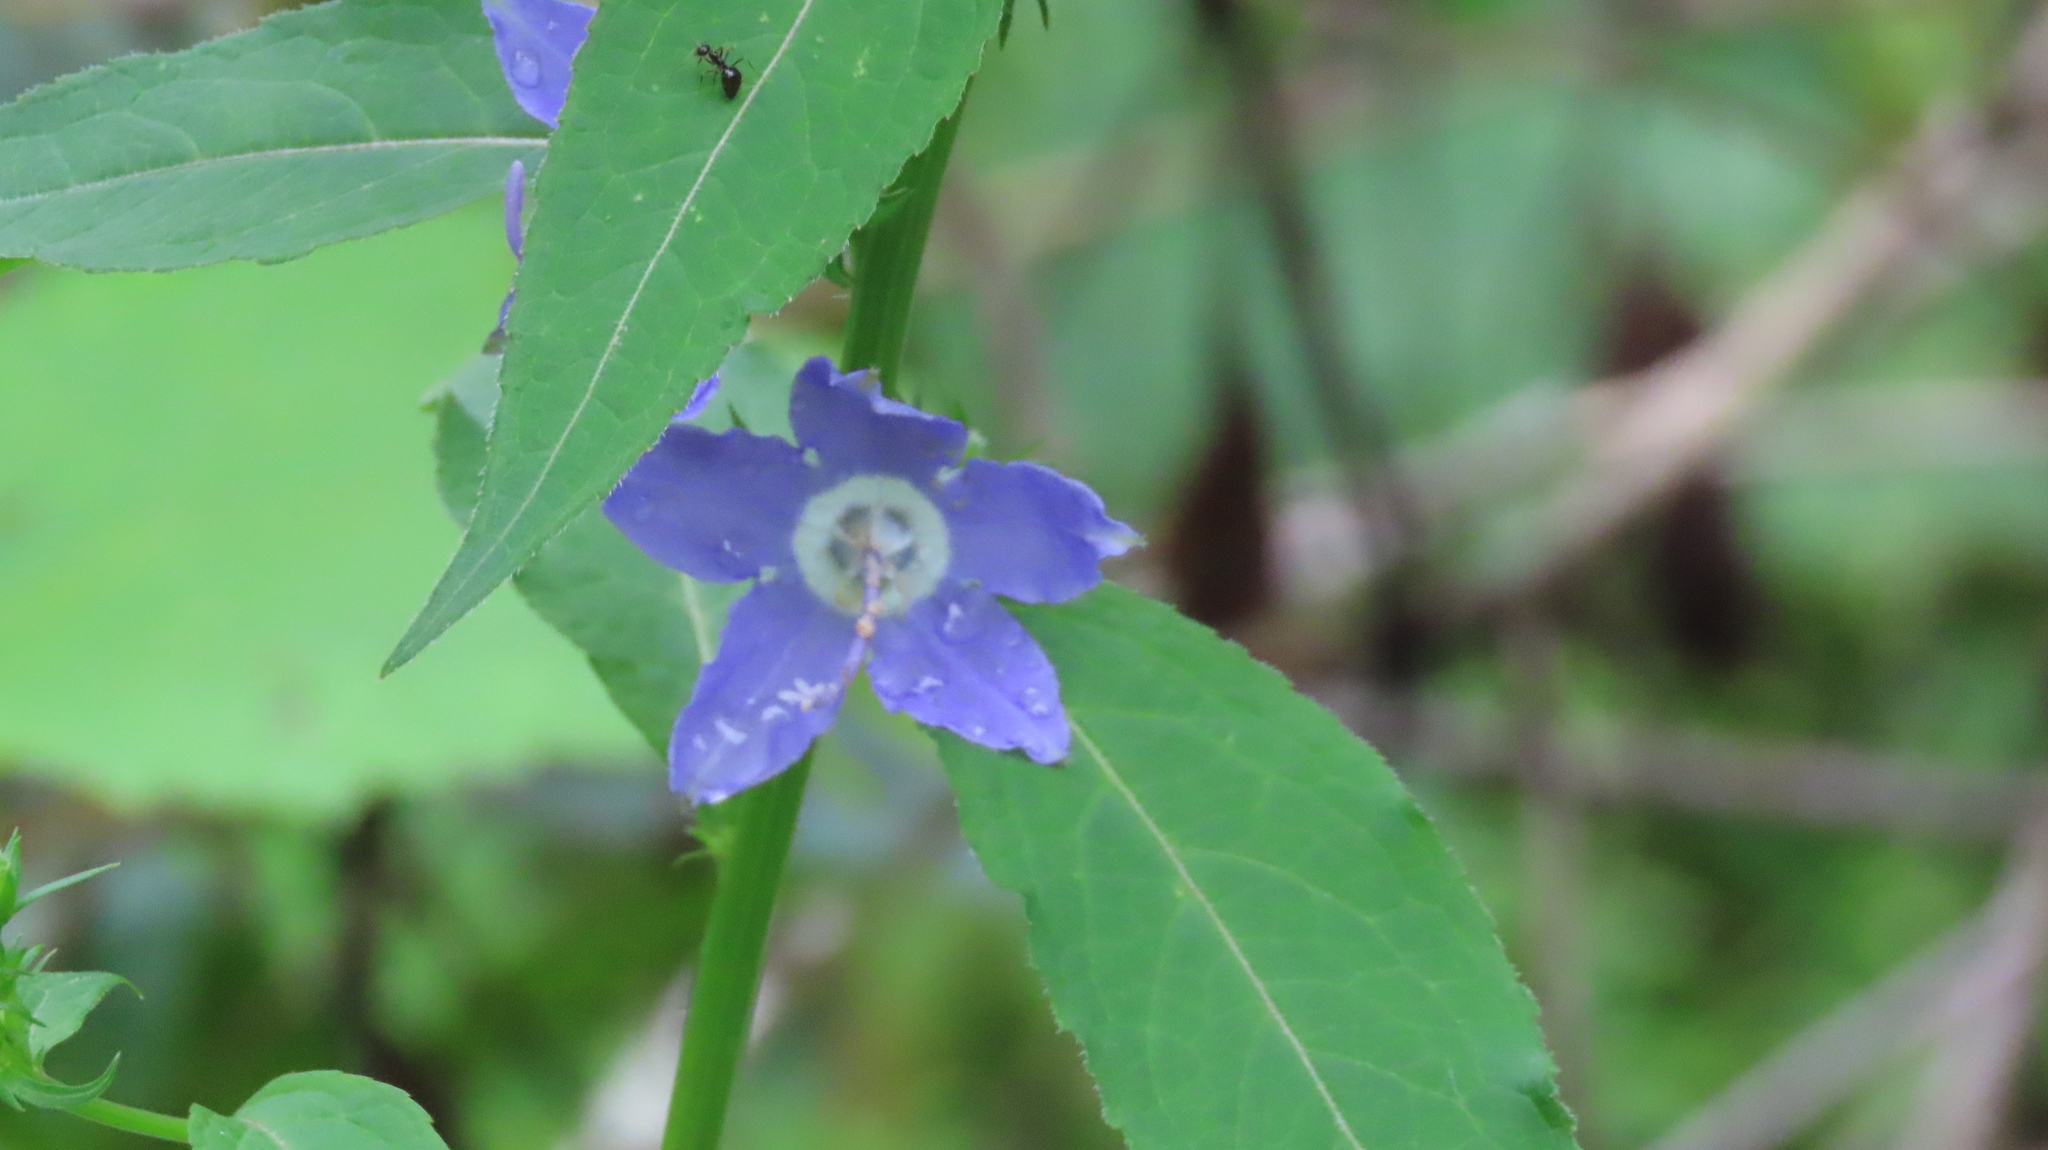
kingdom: Plantae
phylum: Tracheophyta
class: Magnoliopsida
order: Asterales
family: Campanulaceae
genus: Campanulastrum
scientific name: Campanulastrum americanum
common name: American bellflower
